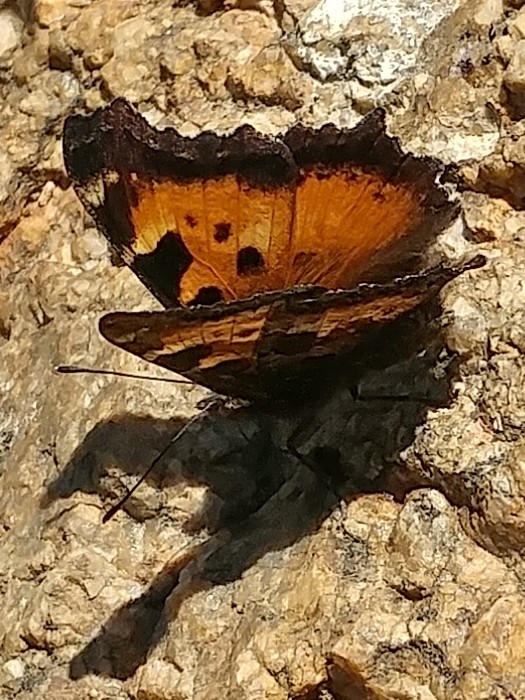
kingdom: Animalia
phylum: Arthropoda
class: Insecta
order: Lepidoptera
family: Nymphalidae
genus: Nymphalis
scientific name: Nymphalis californica
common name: California tortoiseshell
